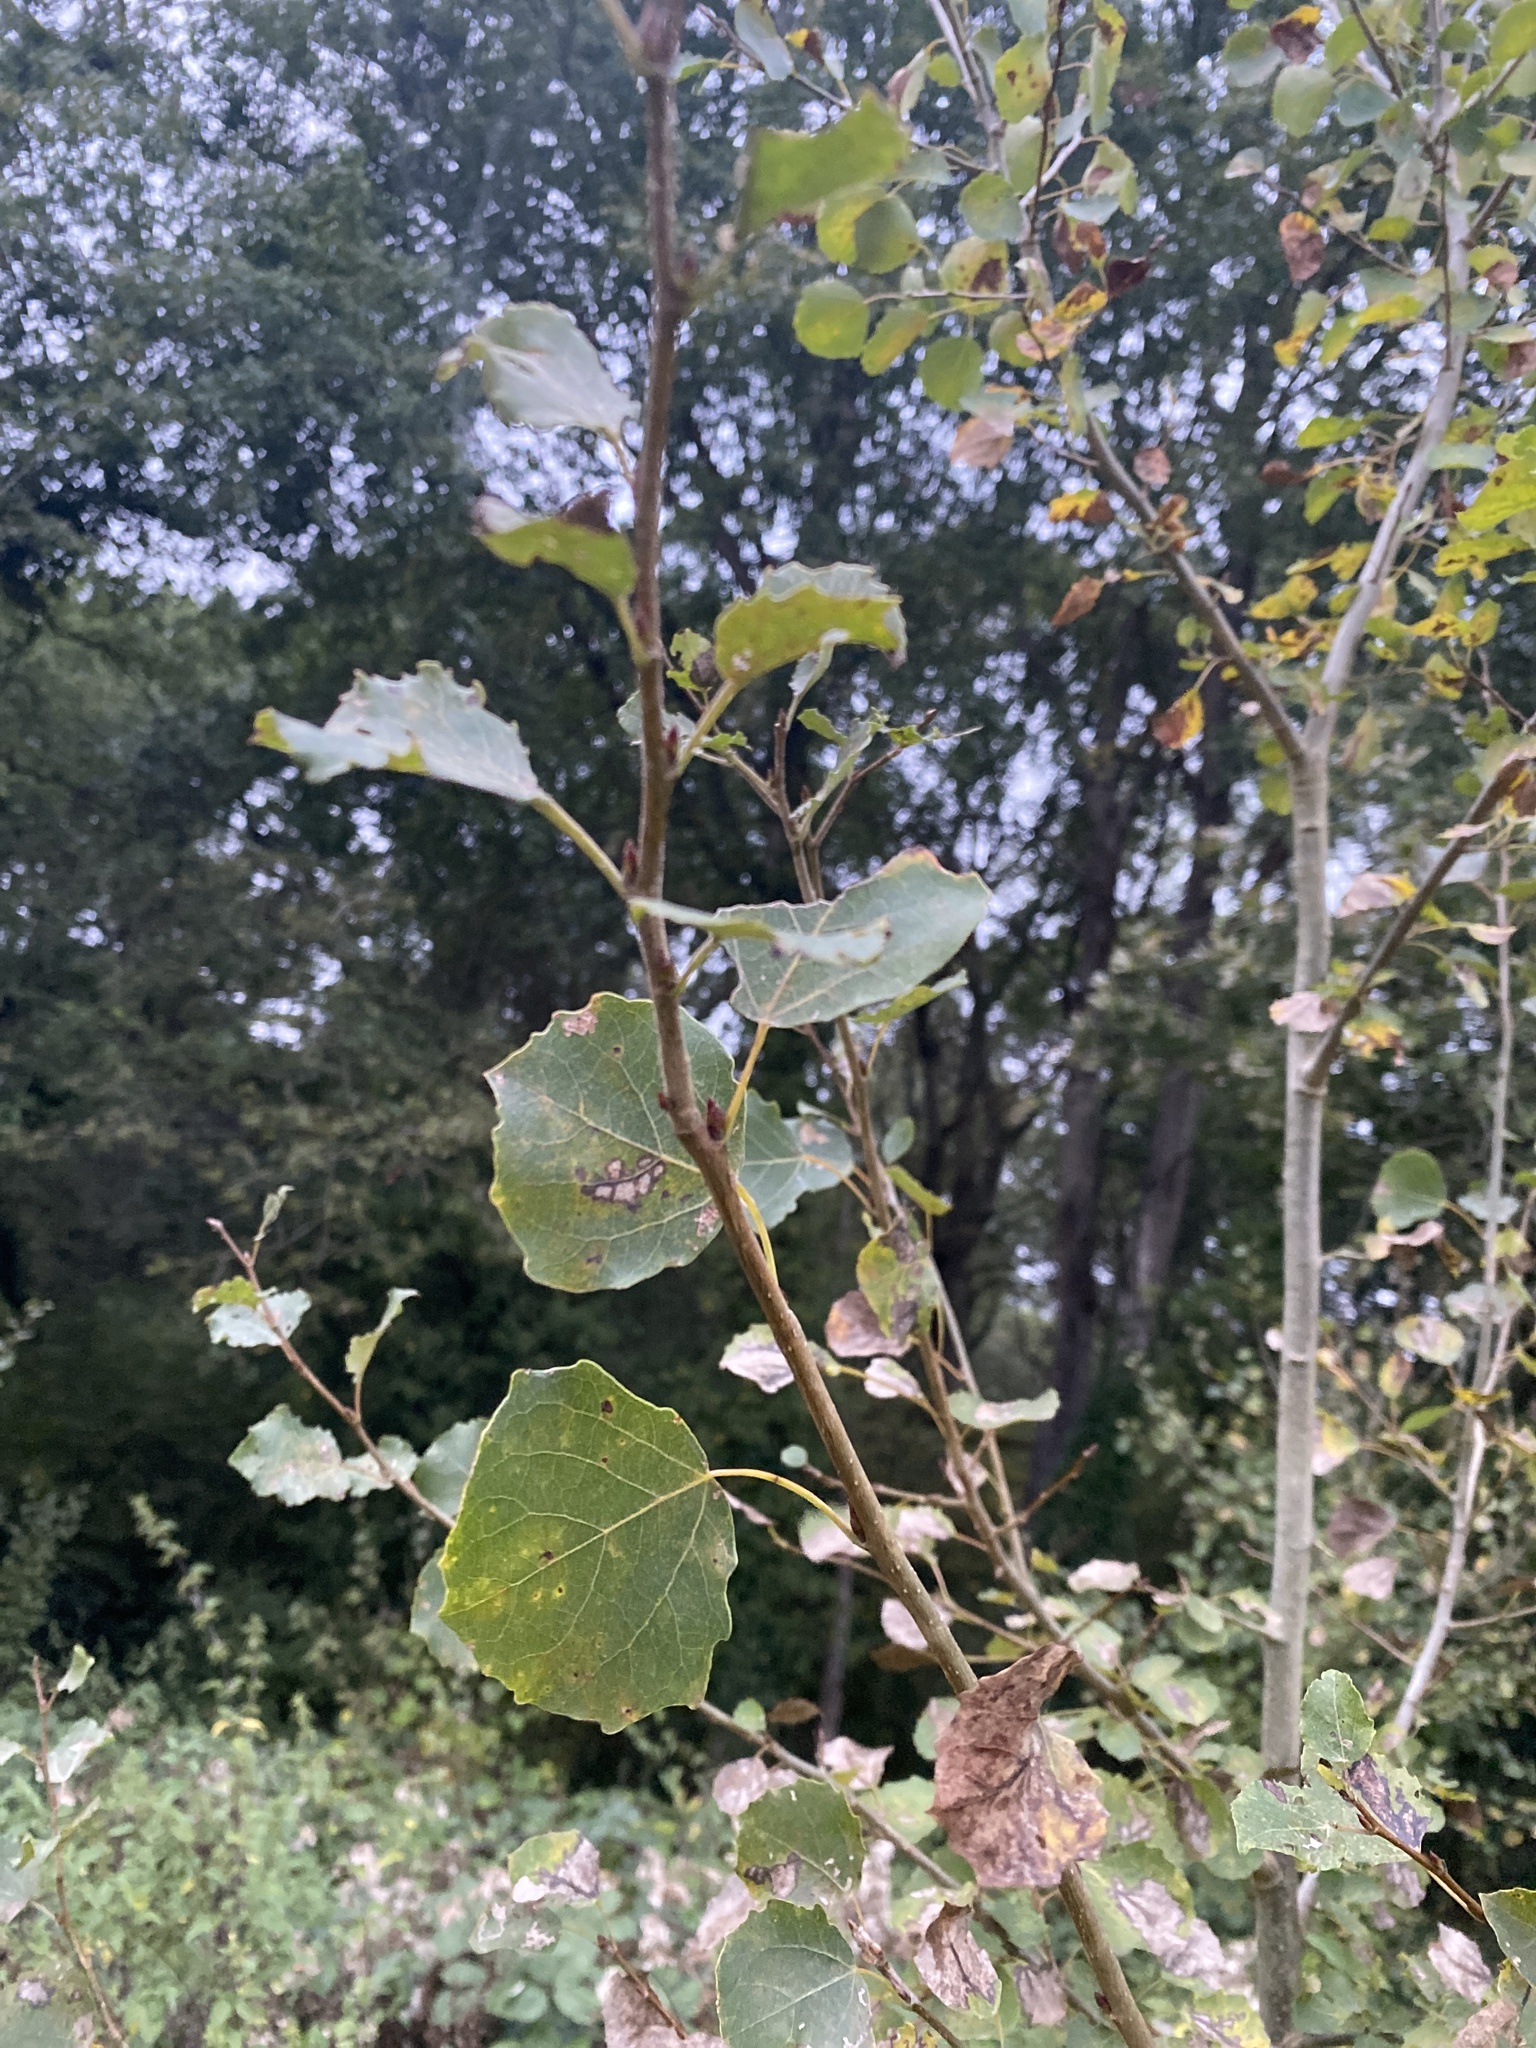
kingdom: Plantae
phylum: Tracheophyta
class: Magnoliopsida
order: Malpighiales
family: Salicaceae
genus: Populus
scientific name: Populus tremula
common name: European aspen
